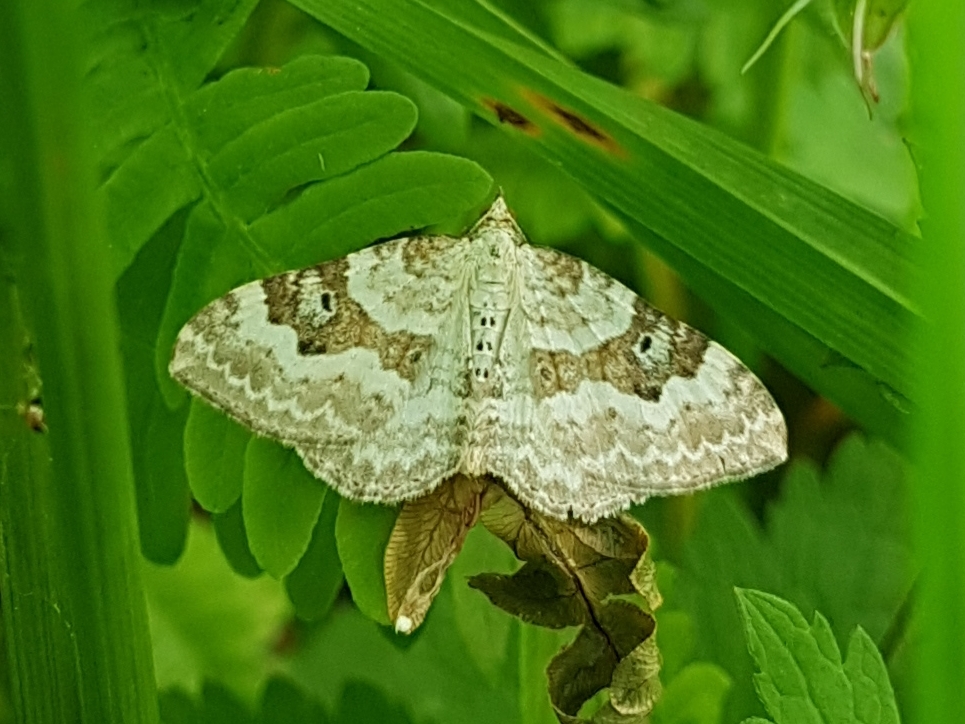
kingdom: Animalia
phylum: Arthropoda
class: Insecta
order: Lepidoptera
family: Geometridae
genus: Xanthorhoe
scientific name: Xanthorhoe montanata
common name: Silver-ground carpet
